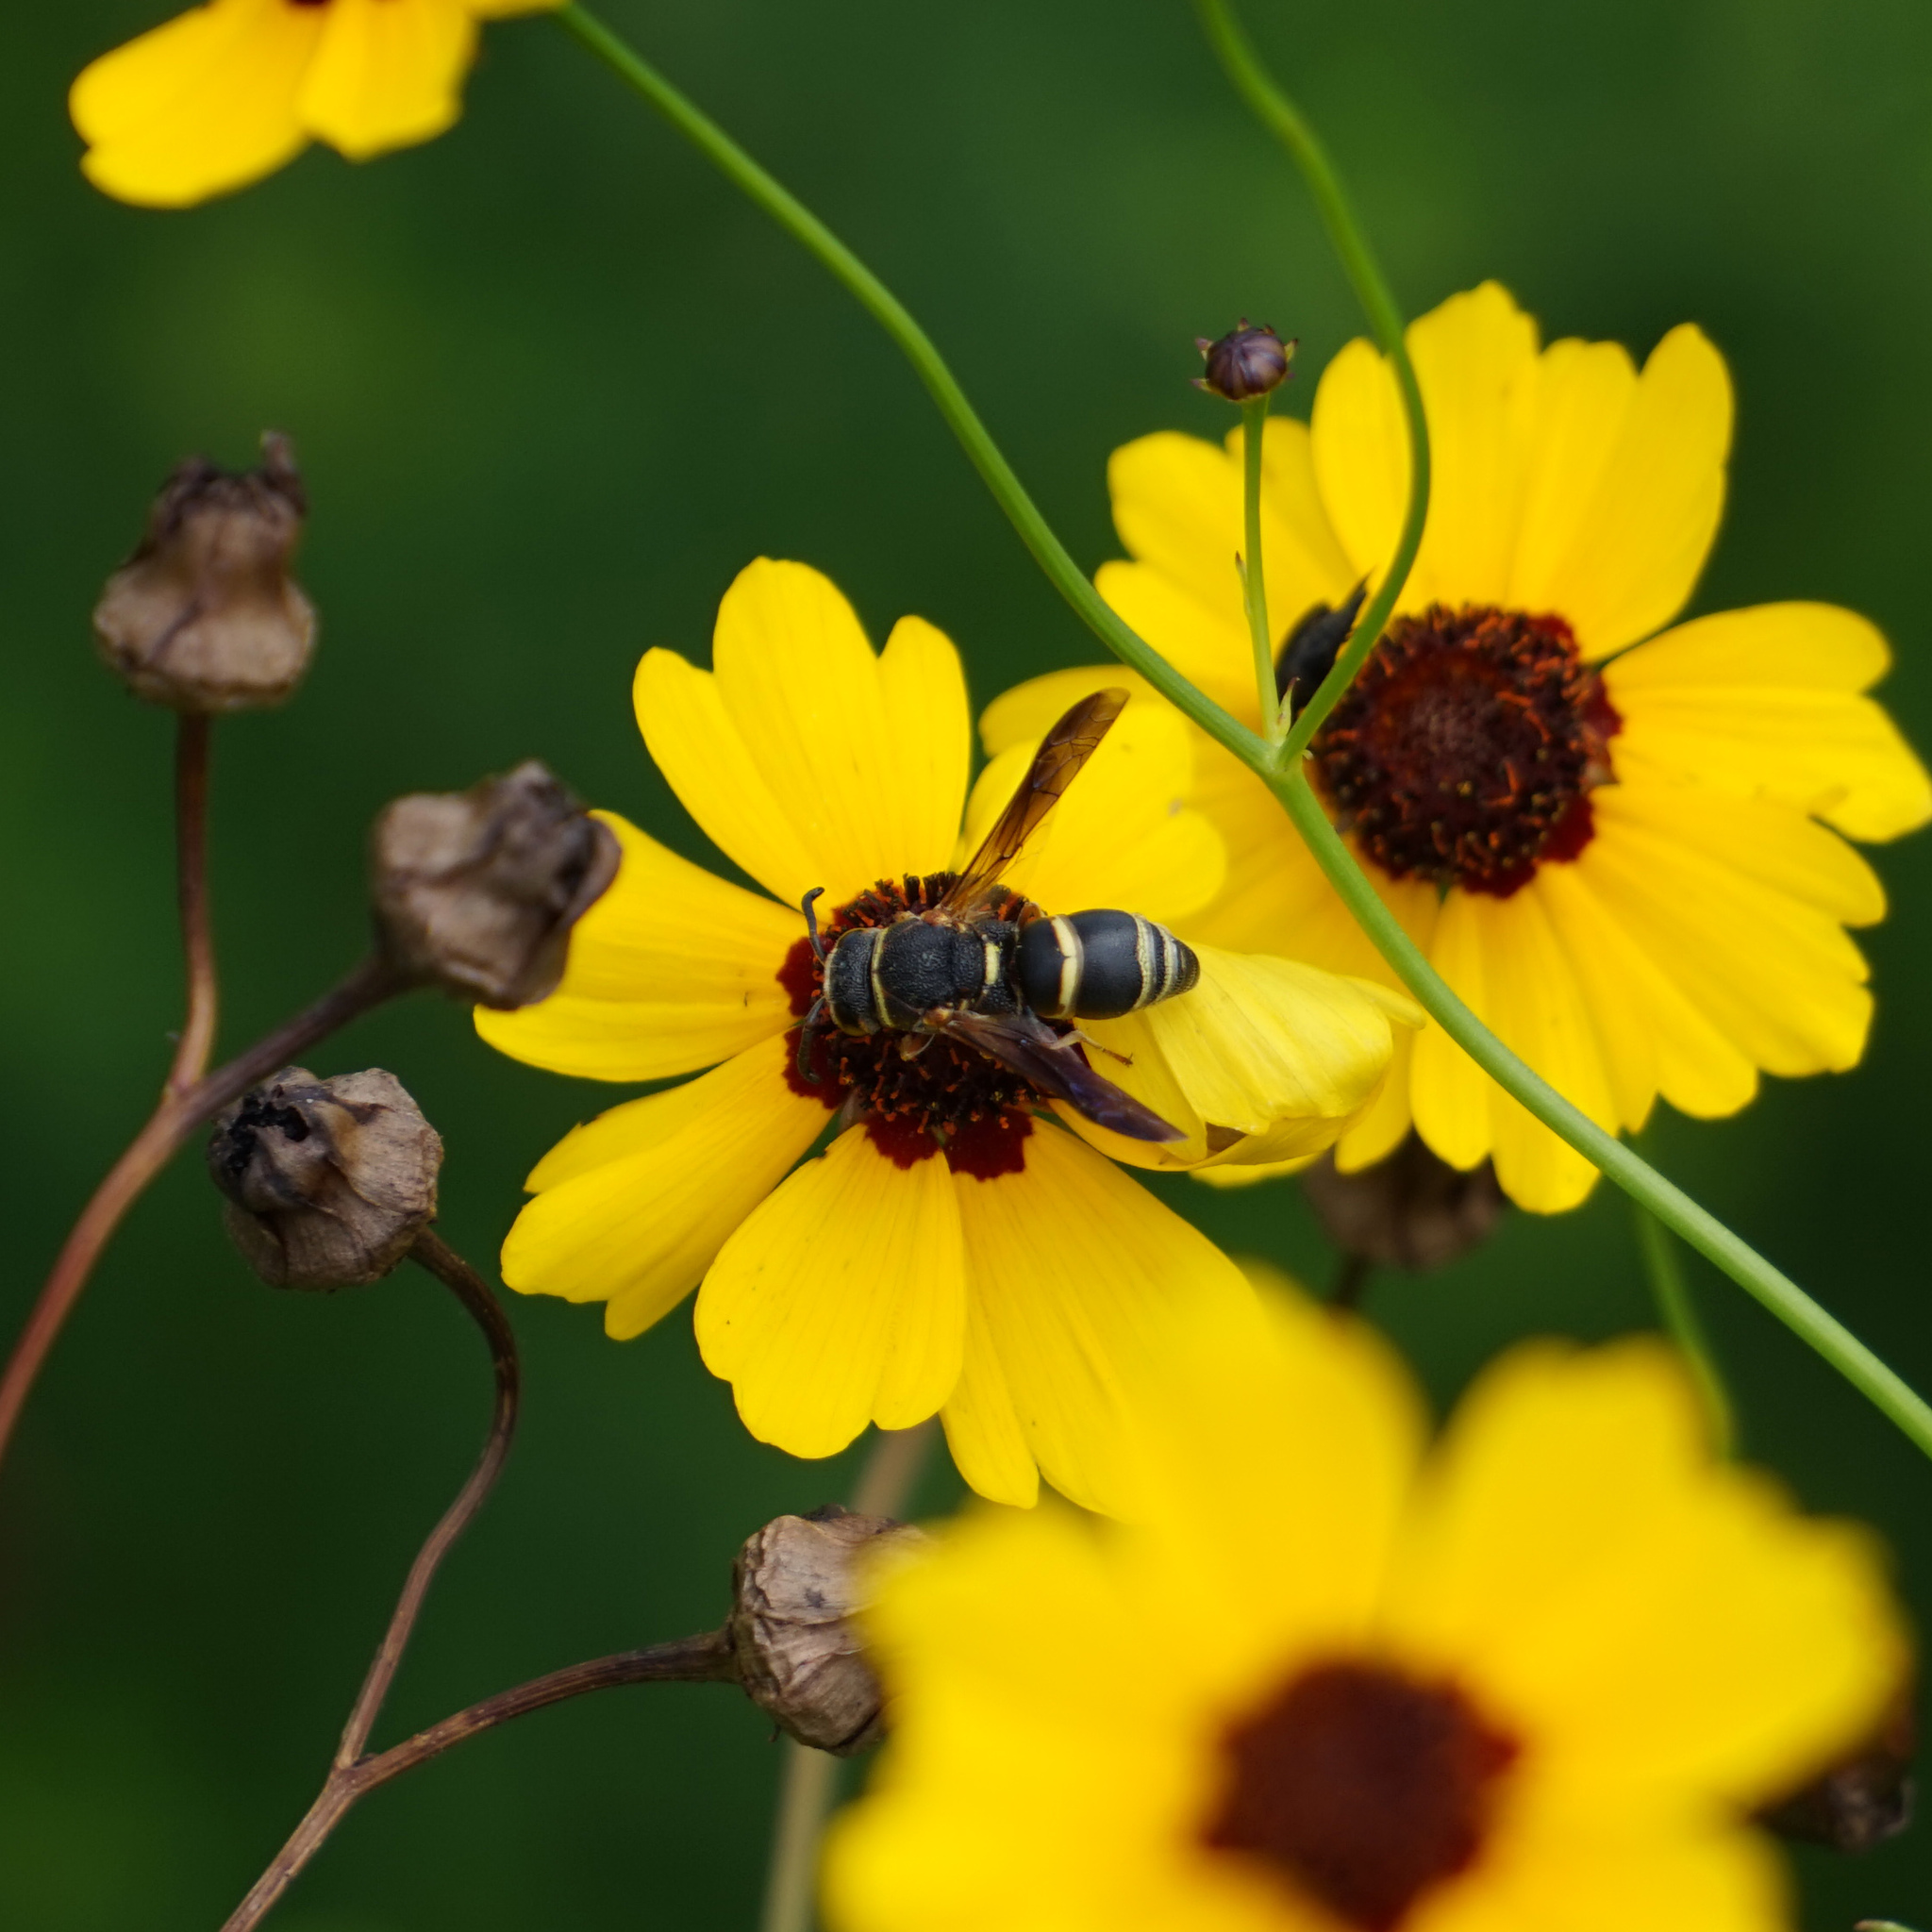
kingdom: Animalia
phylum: Arthropoda
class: Insecta
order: Hymenoptera
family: Eumenidae
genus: Euodynerus
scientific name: Euodynerus hidalgo
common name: Wasp
